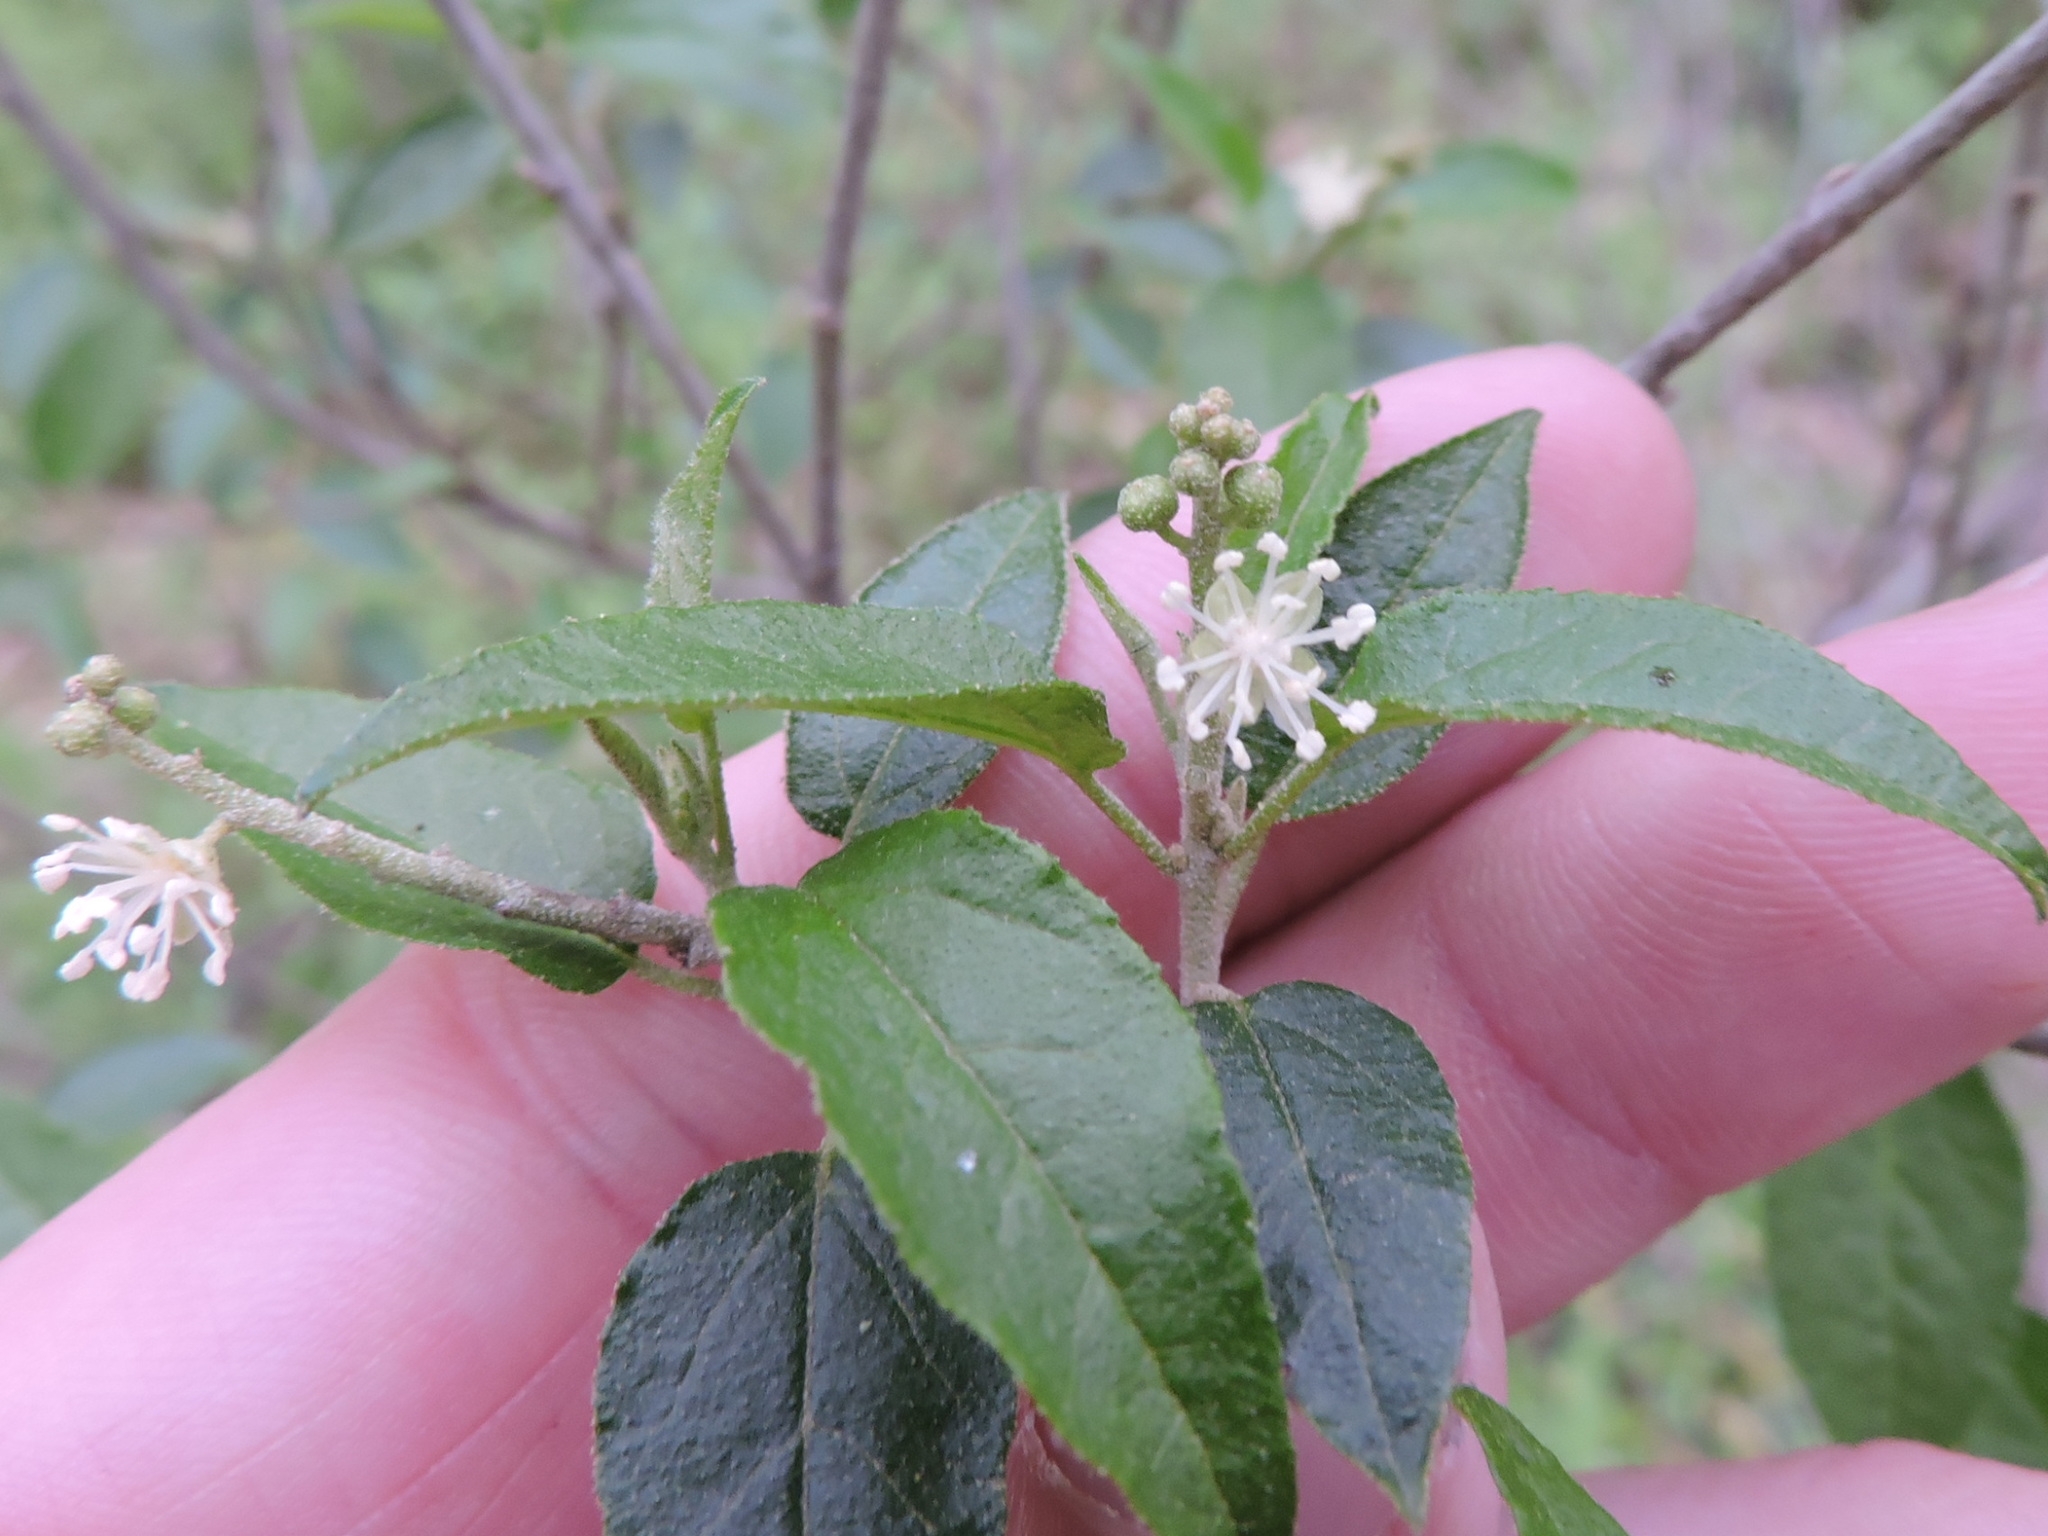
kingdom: Plantae
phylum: Tracheophyta
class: Magnoliopsida
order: Malpighiales
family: Euphorbiaceae
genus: Croton
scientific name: Croton fruticulosus
